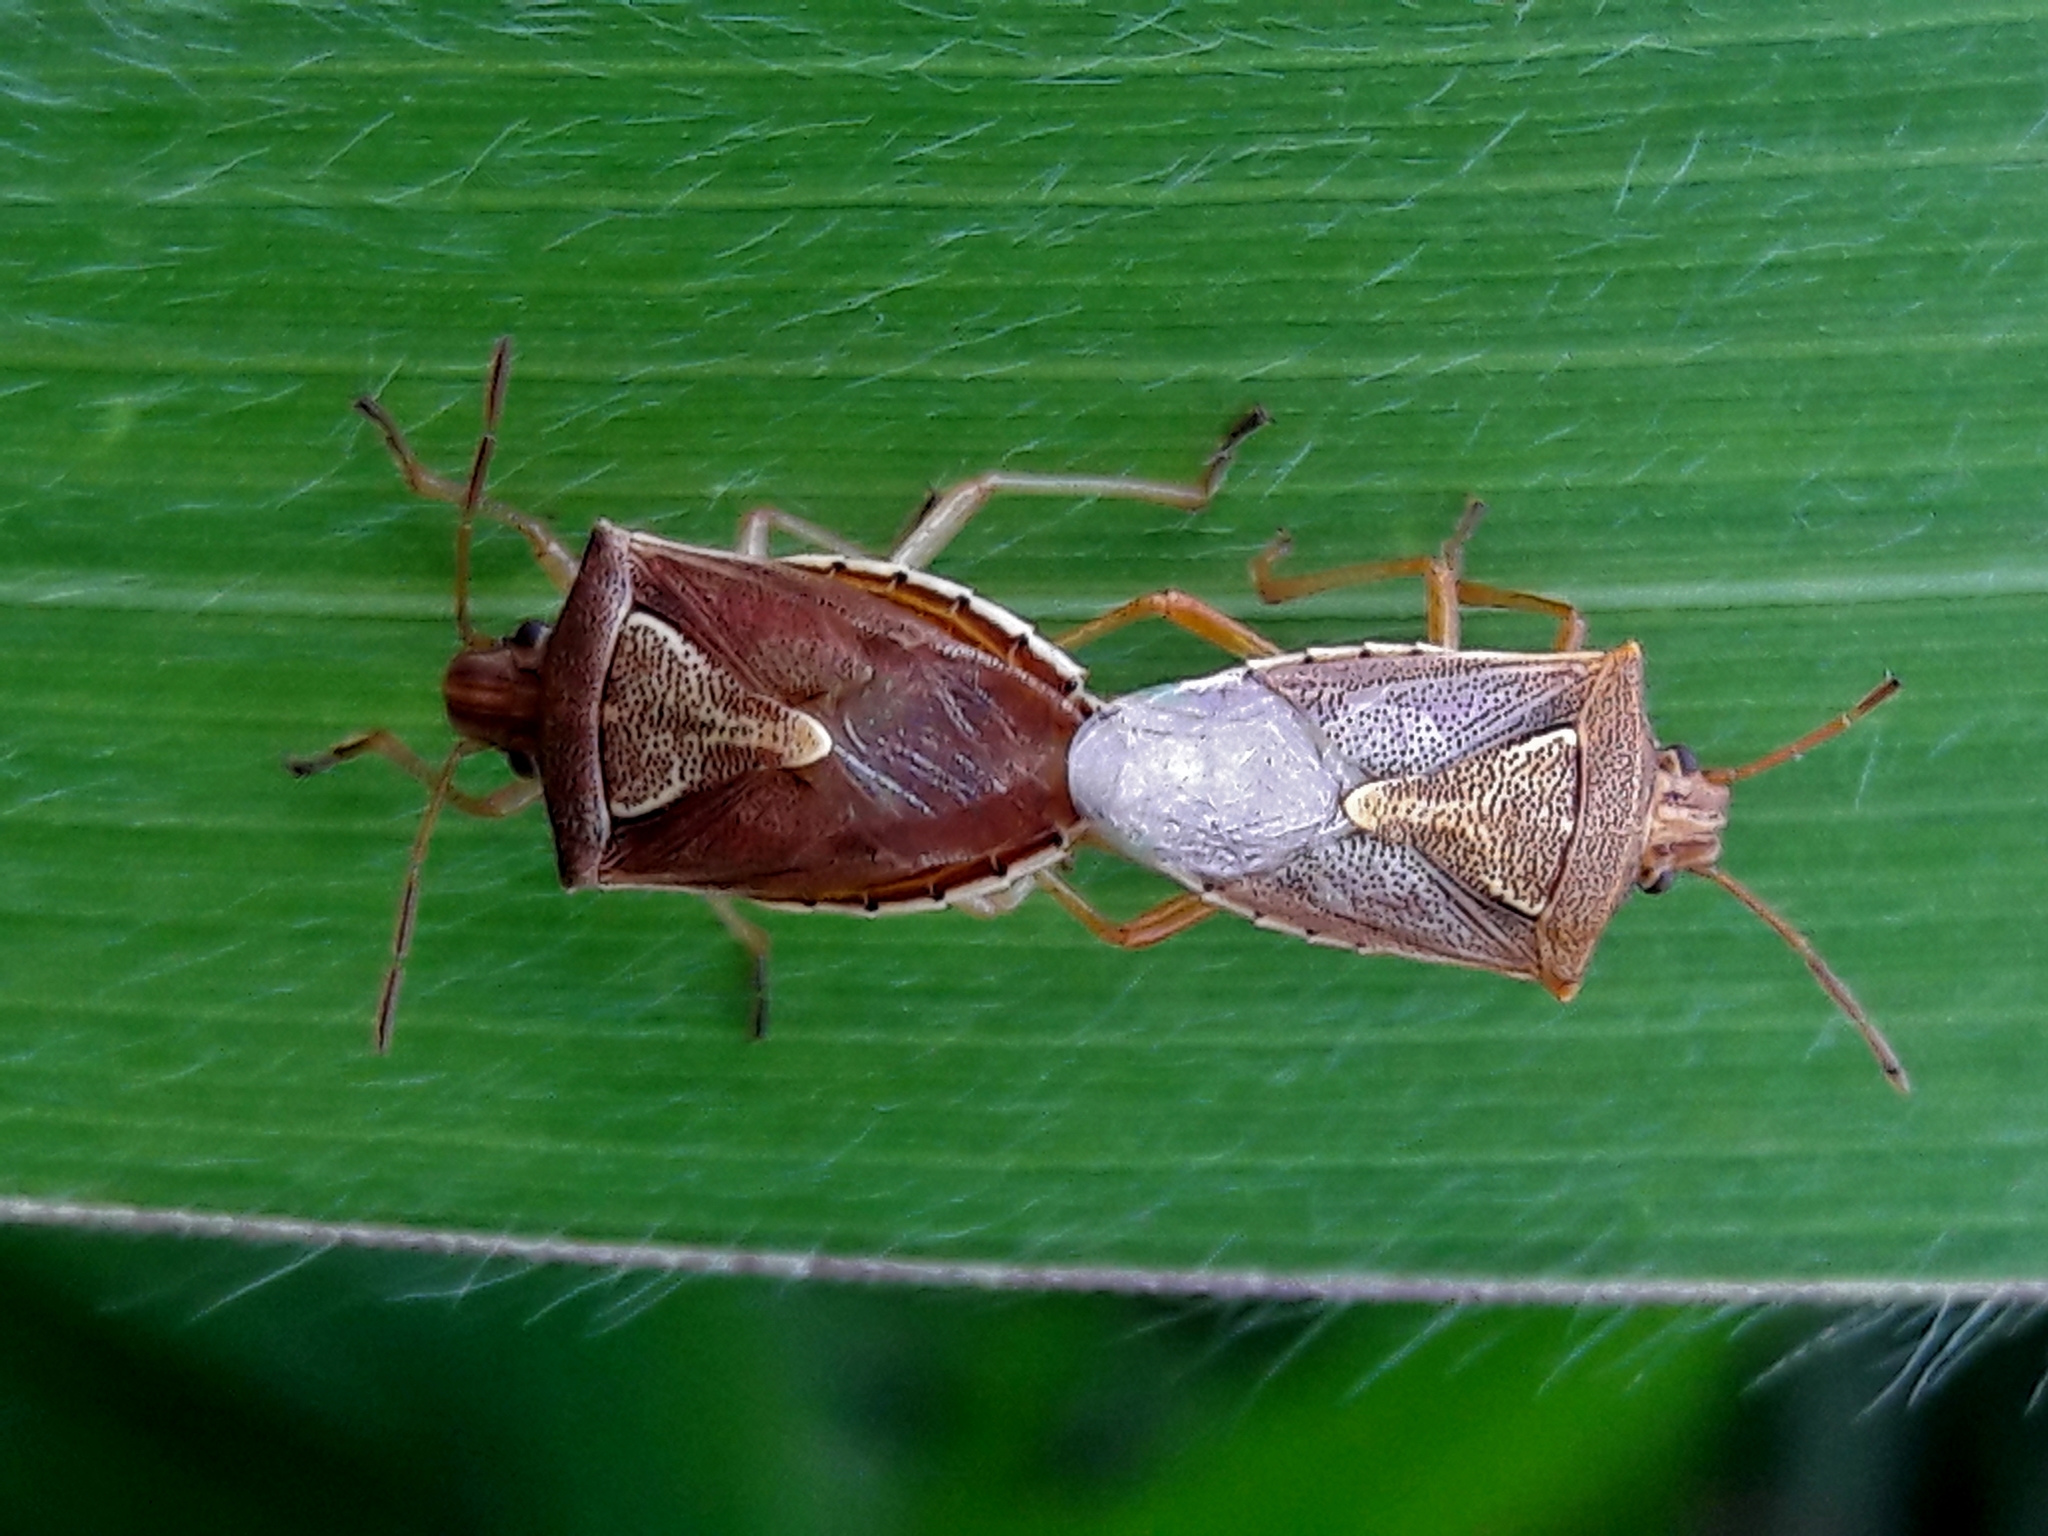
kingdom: Animalia
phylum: Arthropoda
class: Insecta
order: Hemiptera
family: Pentatomidae
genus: Oebalus
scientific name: Oebalus ypsilongriseus
